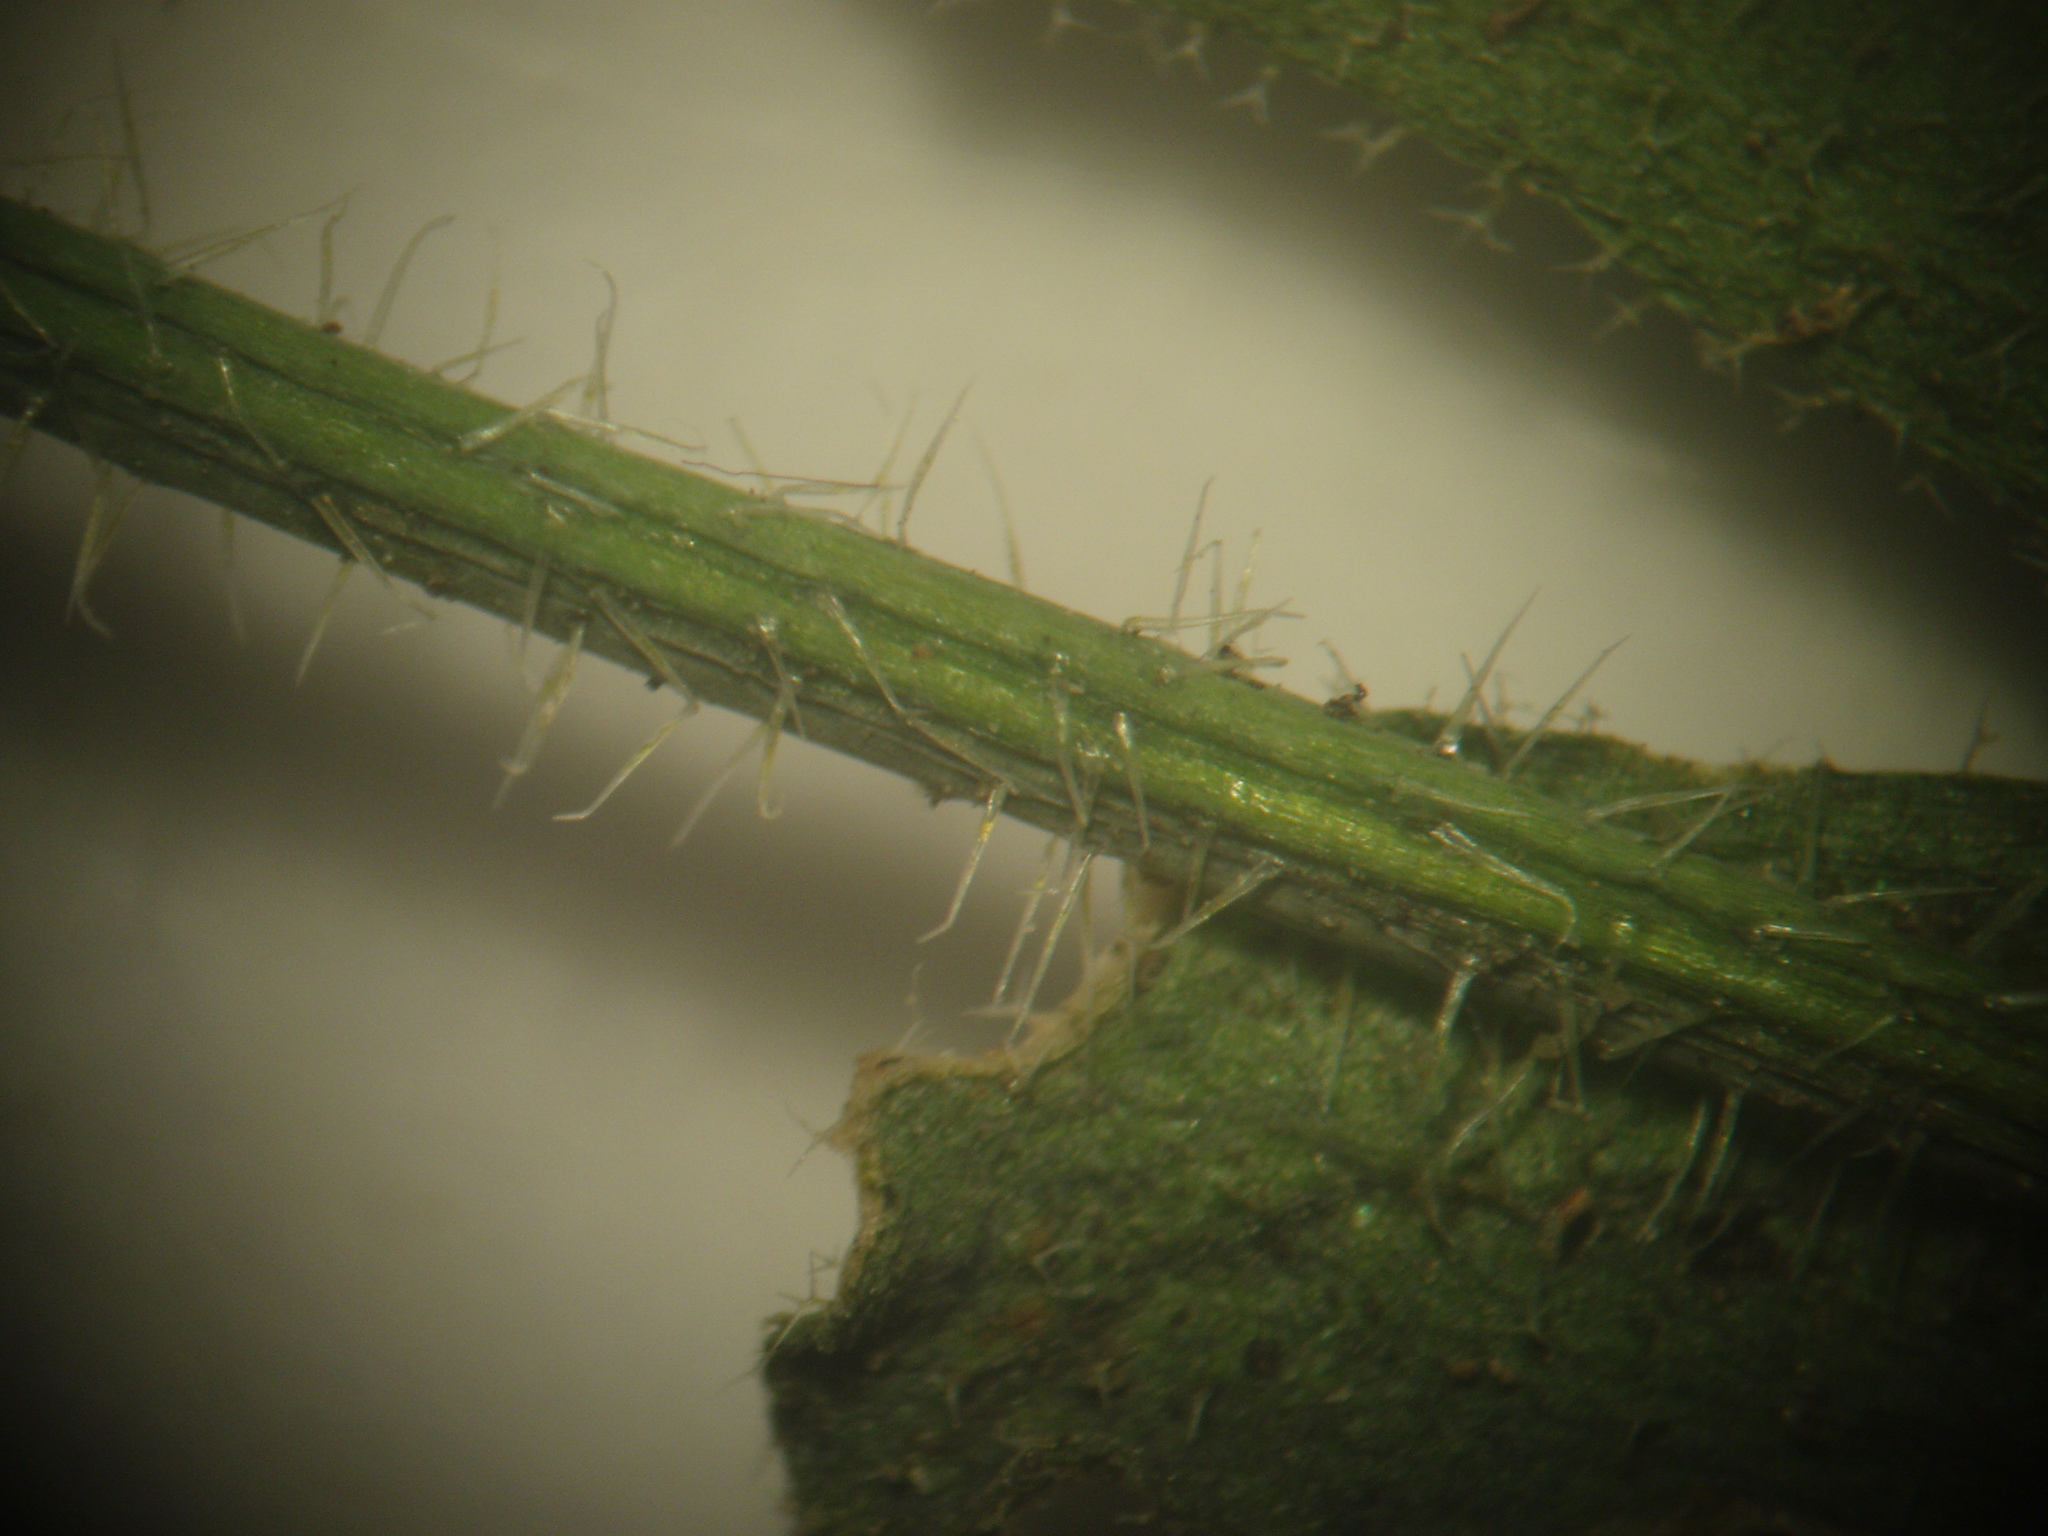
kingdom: Plantae
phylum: Tracheophyta
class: Magnoliopsida
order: Brassicales
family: Brassicaceae
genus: Arabidopsis
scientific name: Arabidopsis thaliana
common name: Thale cress
